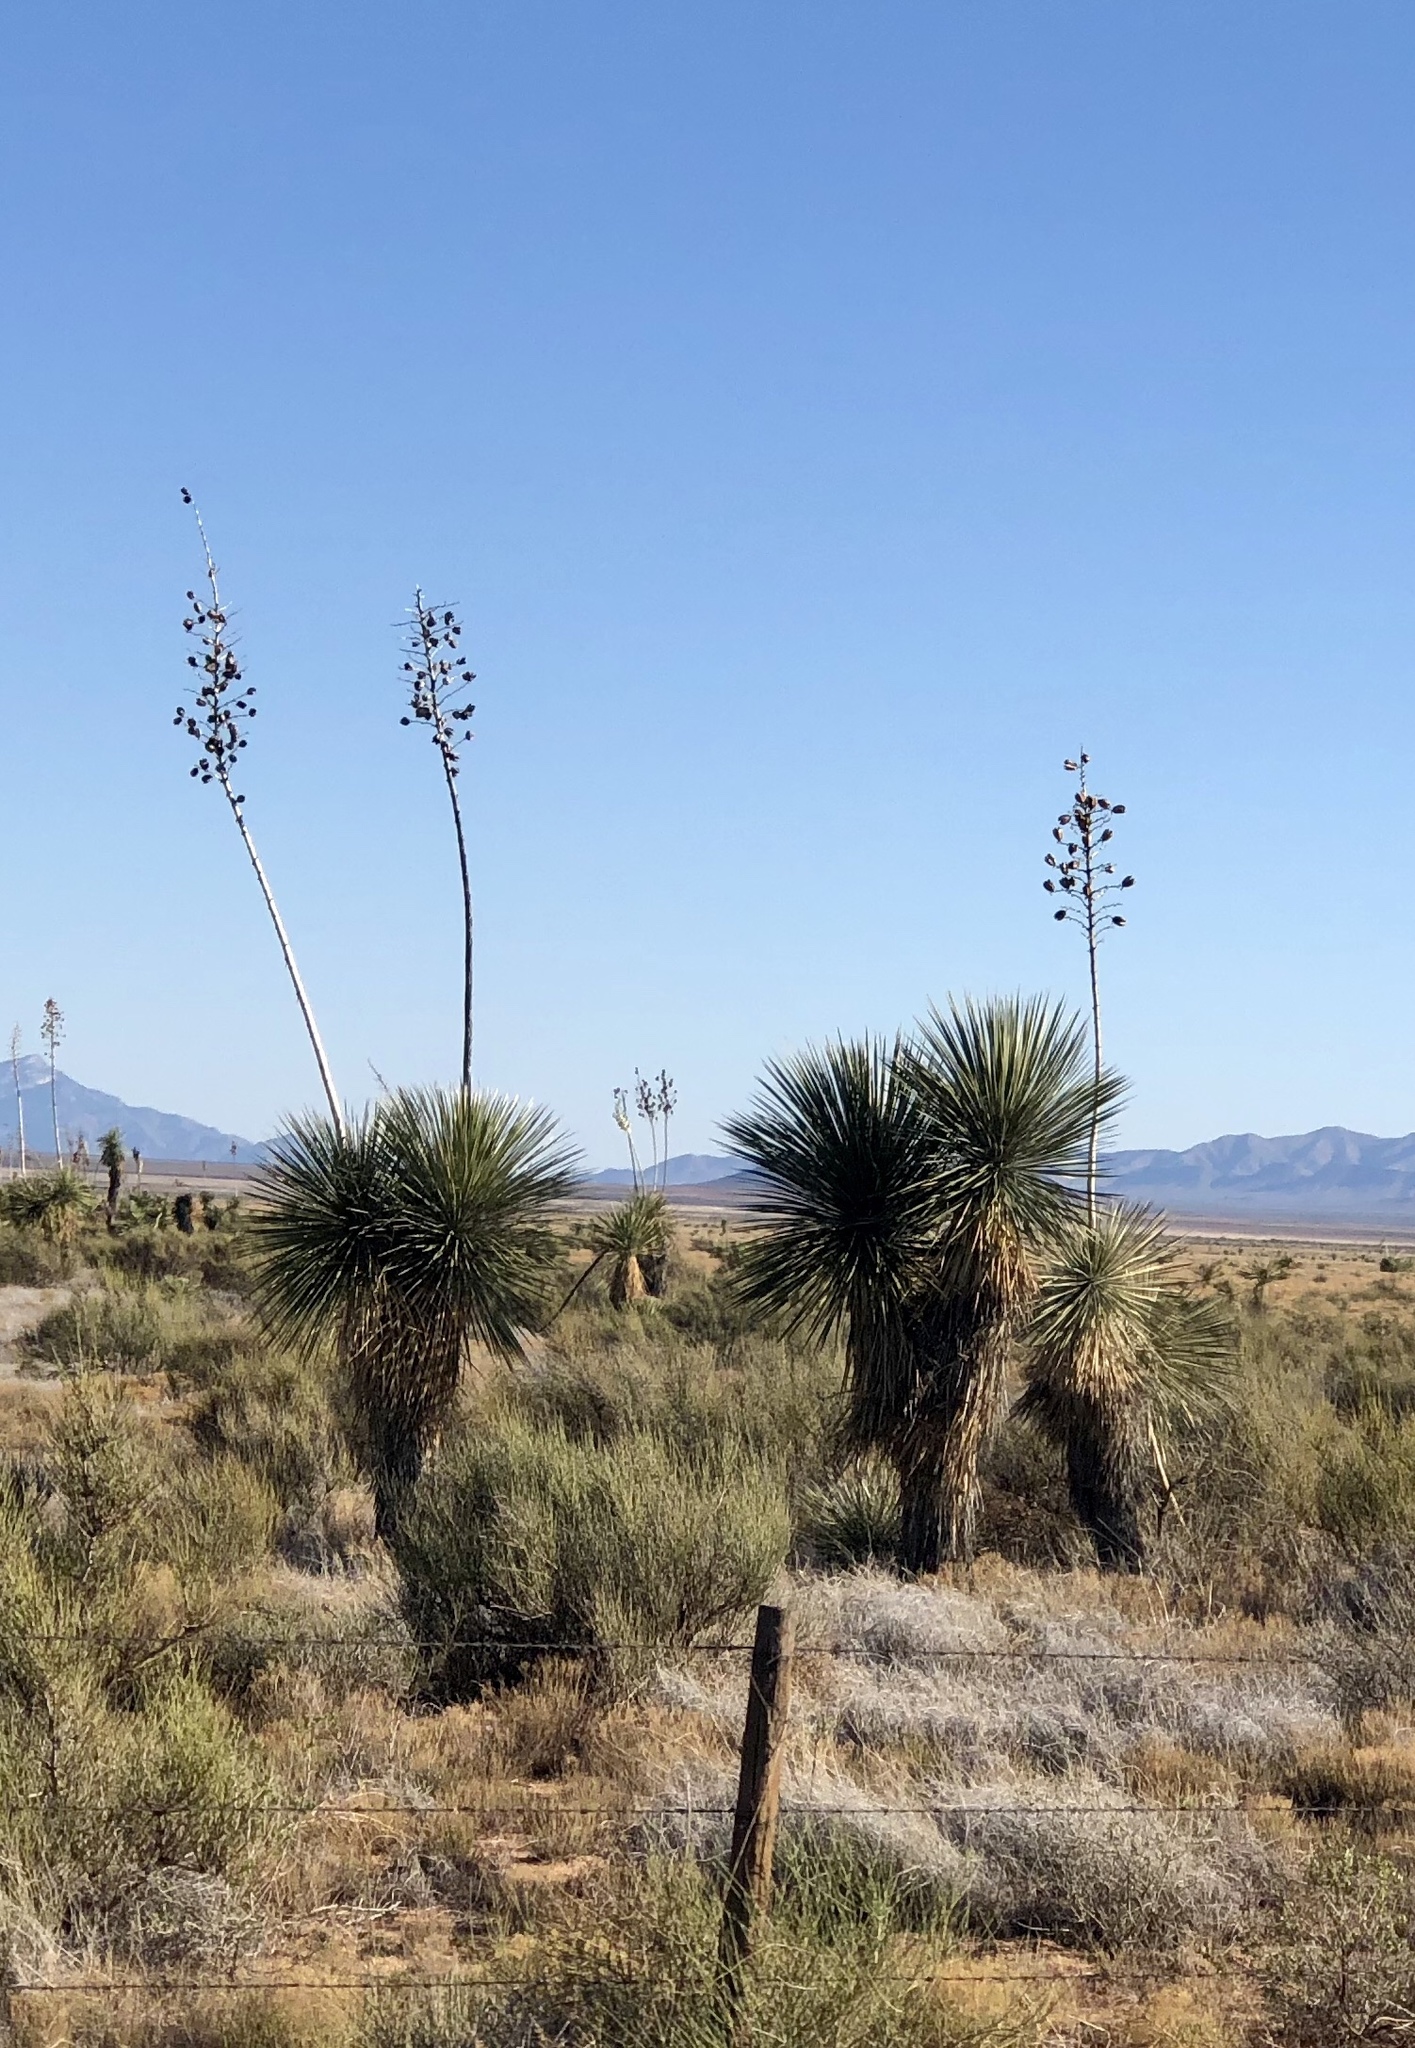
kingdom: Plantae
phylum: Tracheophyta
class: Liliopsida
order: Asparagales
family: Asparagaceae
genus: Yucca
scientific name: Yucca elata
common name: Palmella
